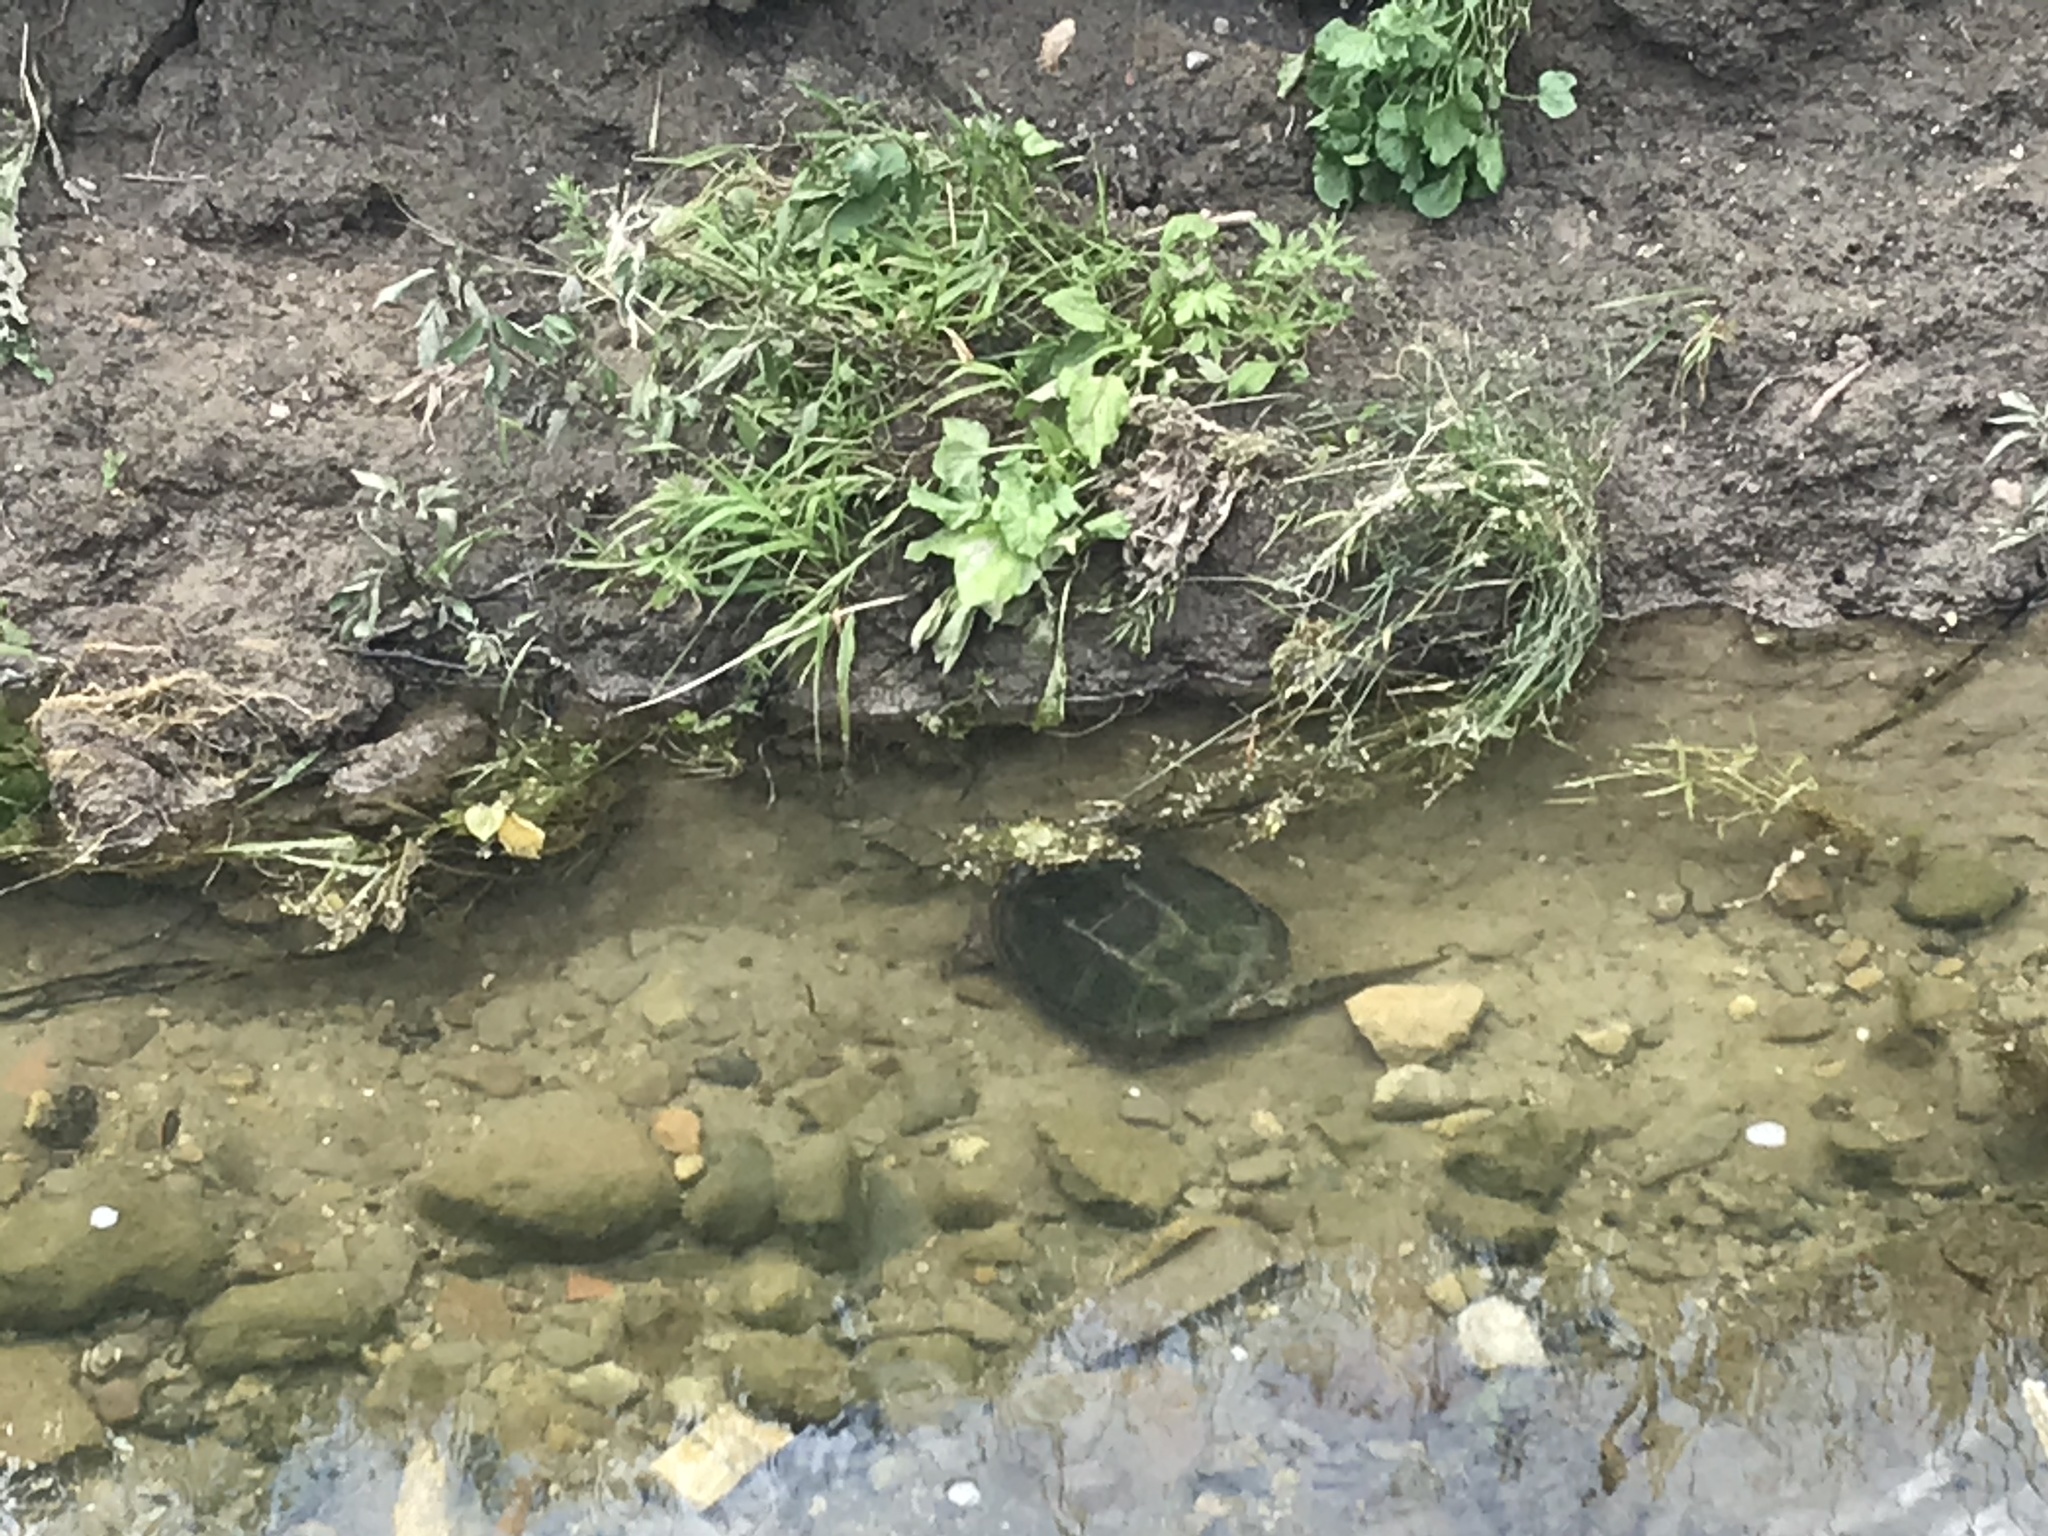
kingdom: Animalia
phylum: Chordata
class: Testudines
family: Chelydridae
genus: Chelydra
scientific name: Chelydra serpentina
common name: Common snapping turtle
